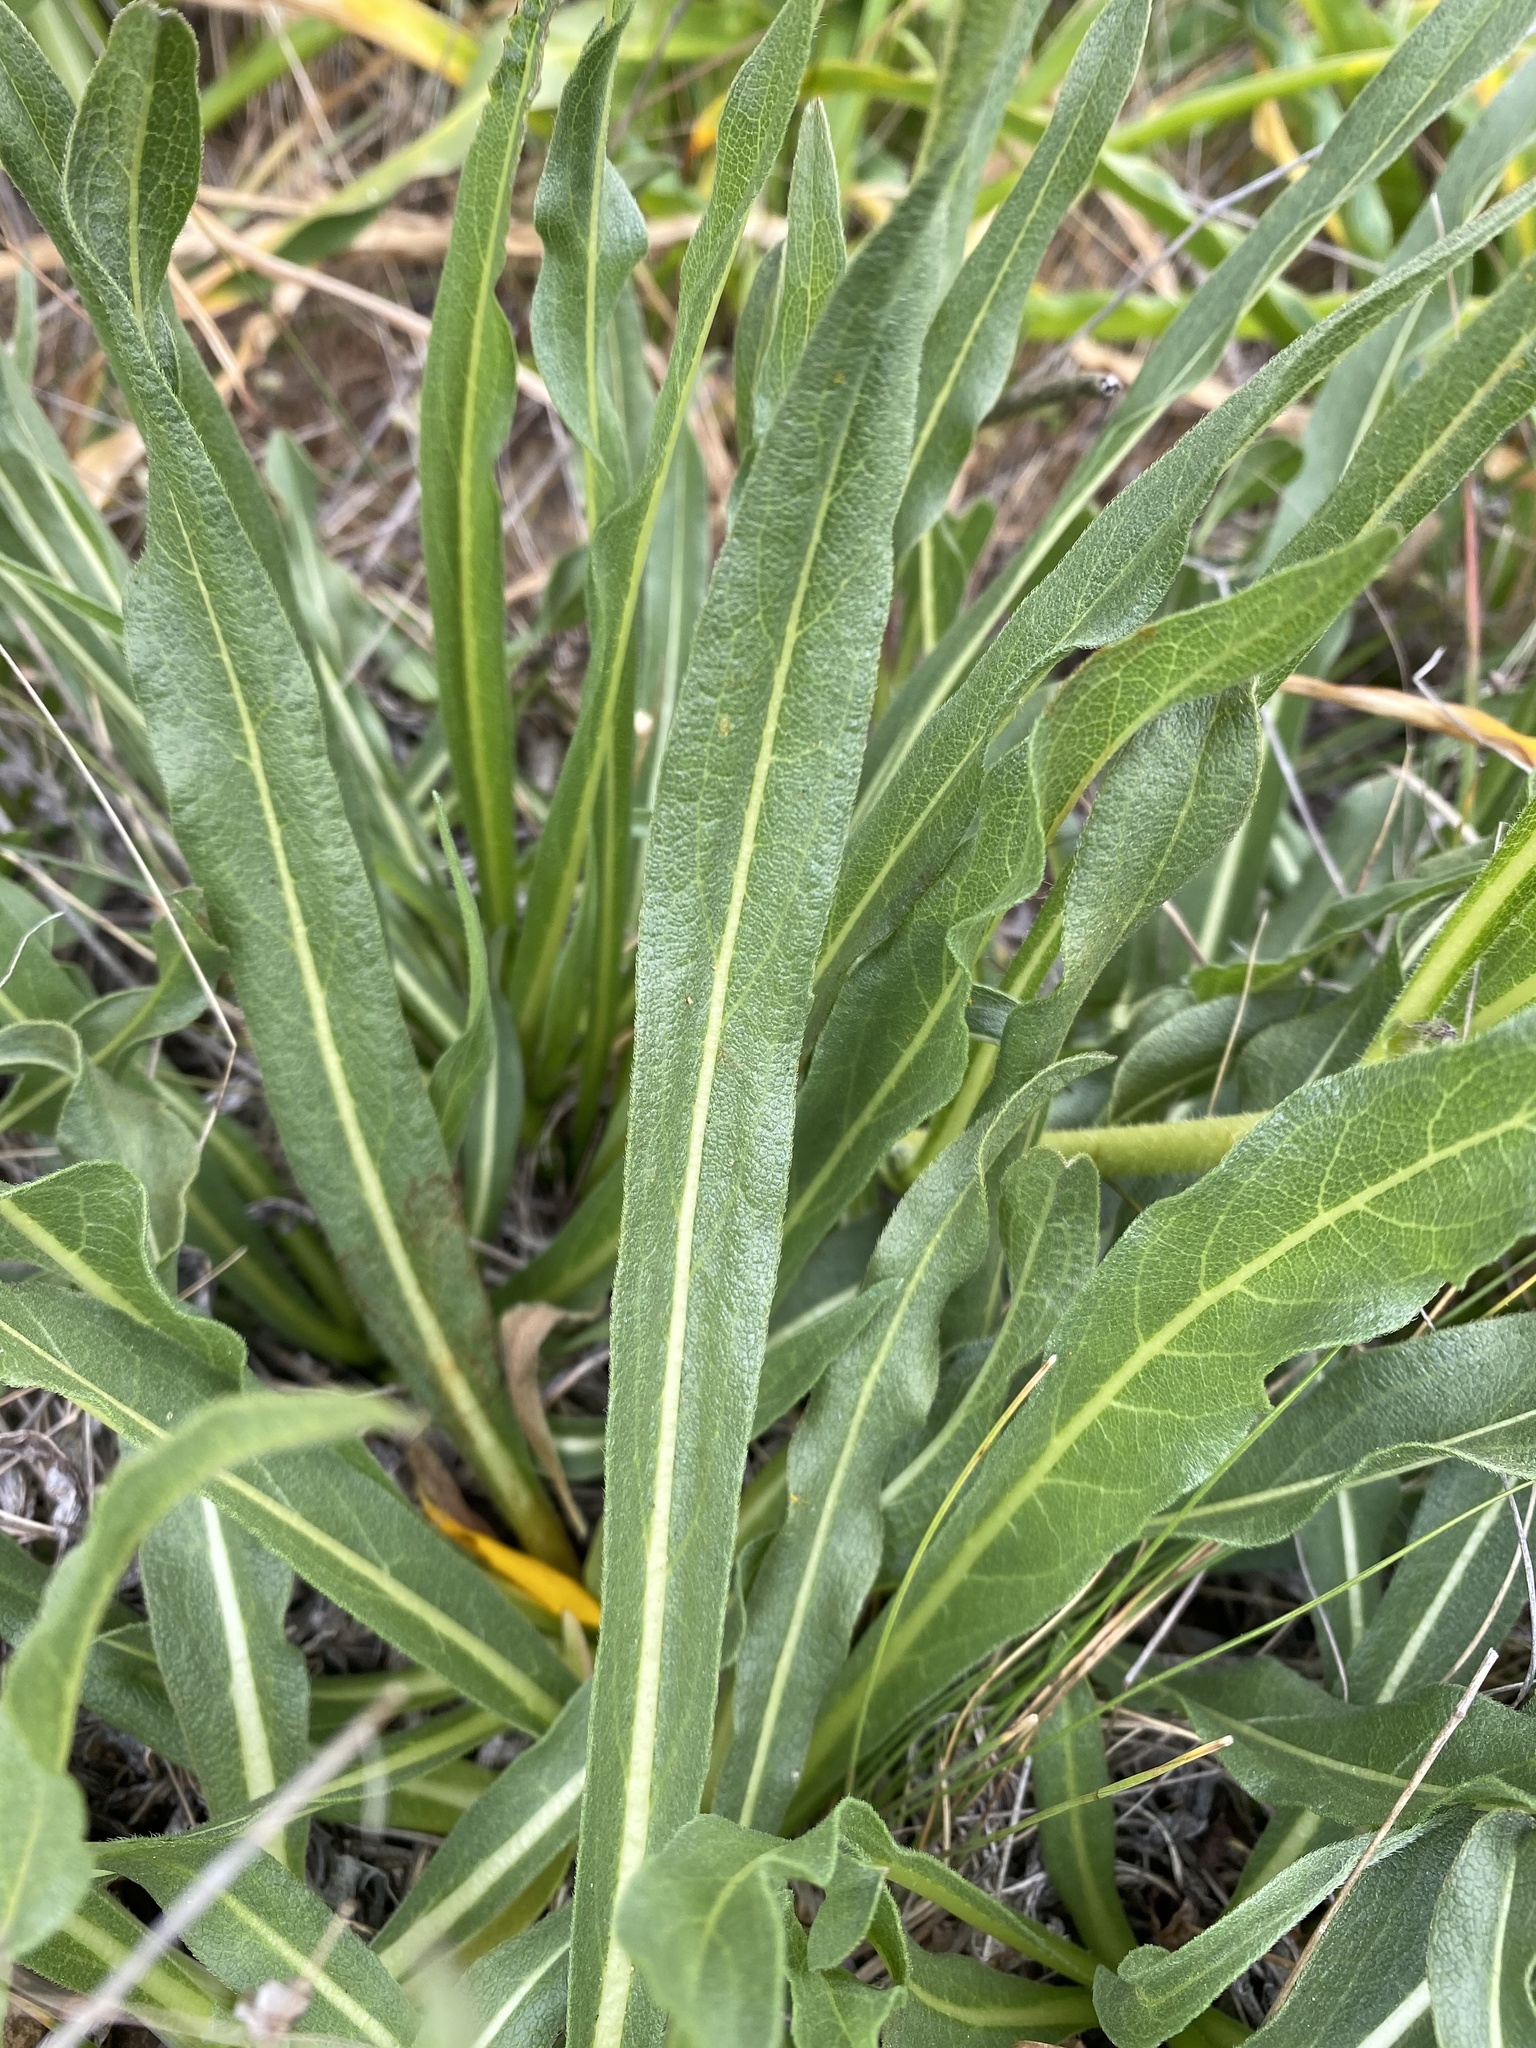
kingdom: Plantae
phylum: Tracheophyta
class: Magnoliopsida
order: Asterales
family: Asteraceae
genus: Wyethia
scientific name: Wyethia angustifolia
